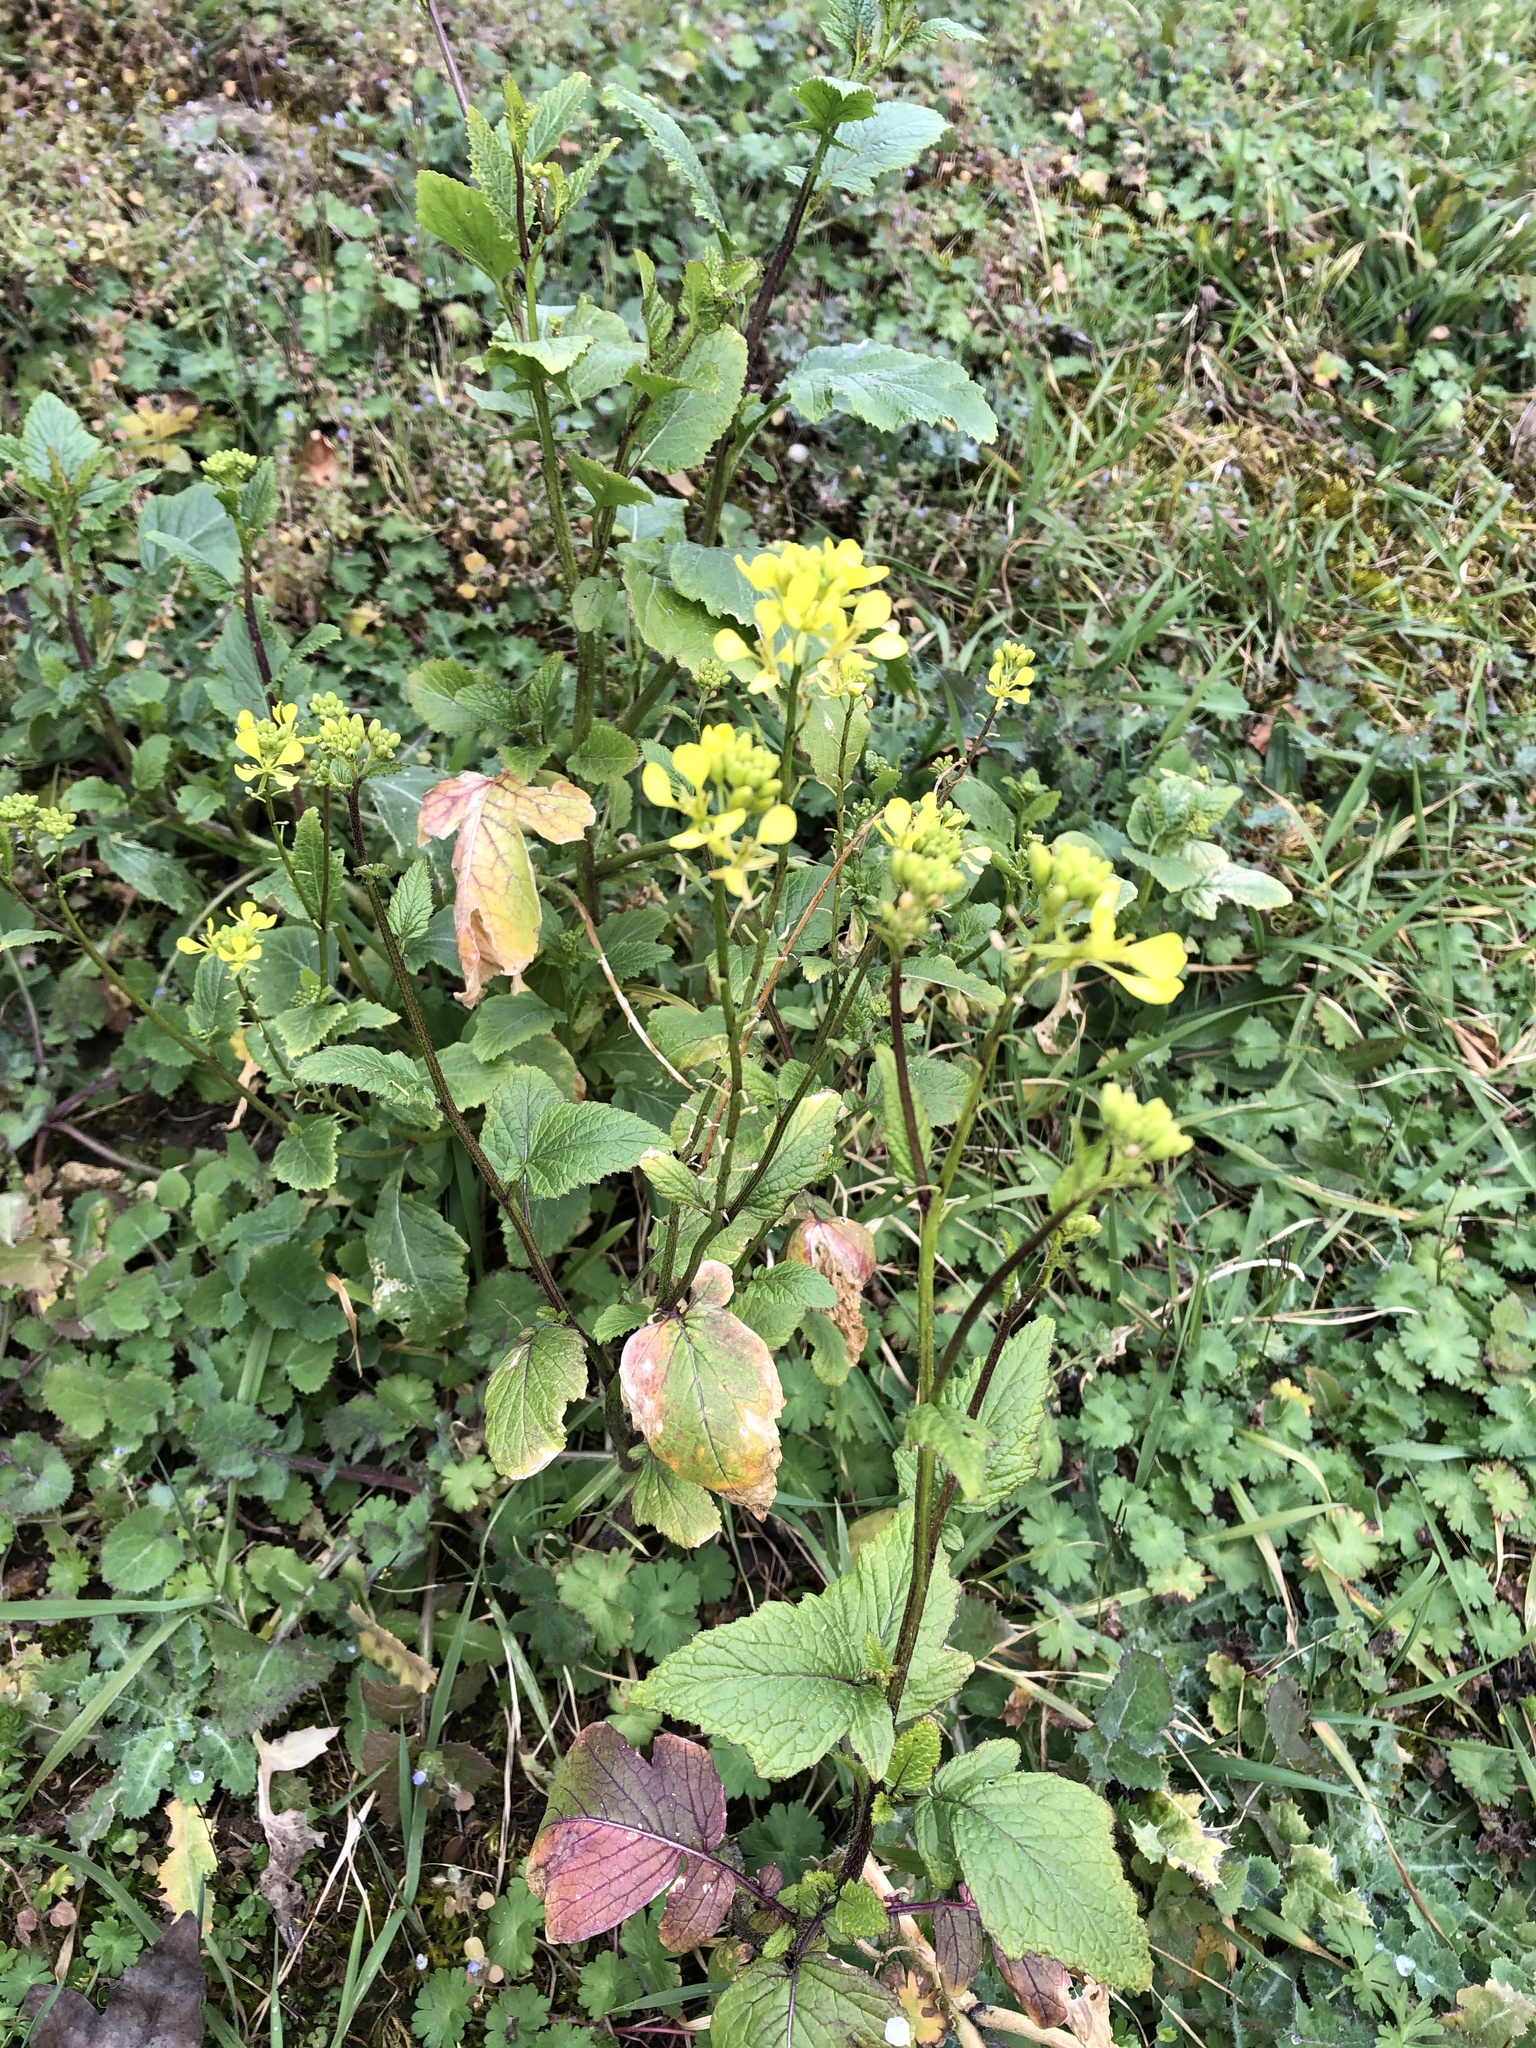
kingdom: Plantae
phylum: Tracheophyta
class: Magnoliopsida
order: Brassicales
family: Brassicaceae
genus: Sinapis
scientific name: Sinapis arvensis
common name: Charlock
